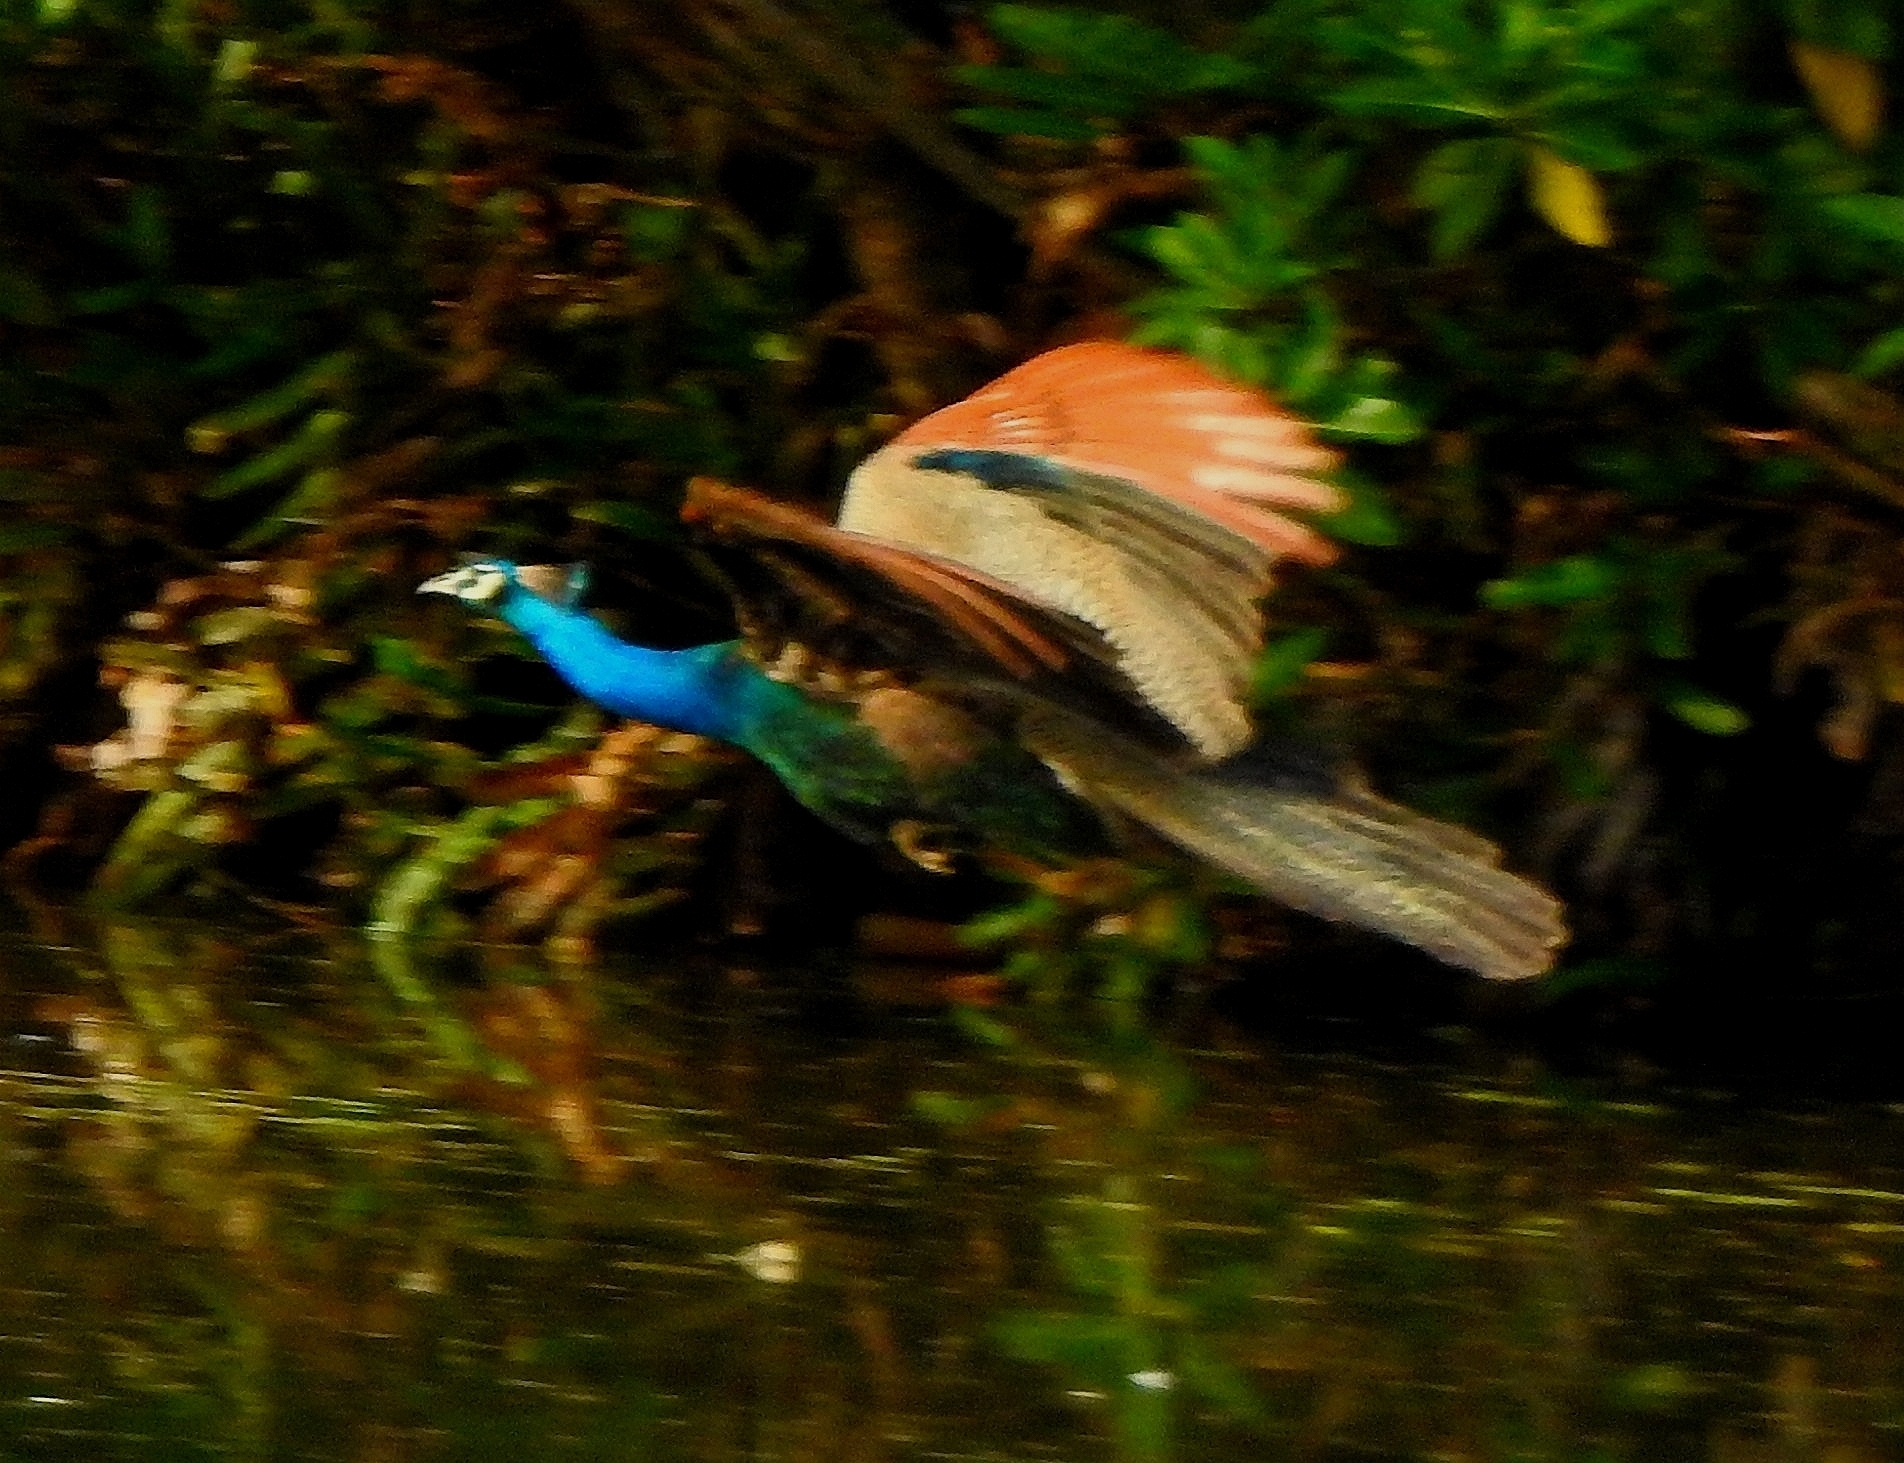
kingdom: Animalia
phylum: Chordata
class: Aves
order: Galliformes
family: Phasianidae
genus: Pavo
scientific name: Pavo cristatus
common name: Indian peafowl
